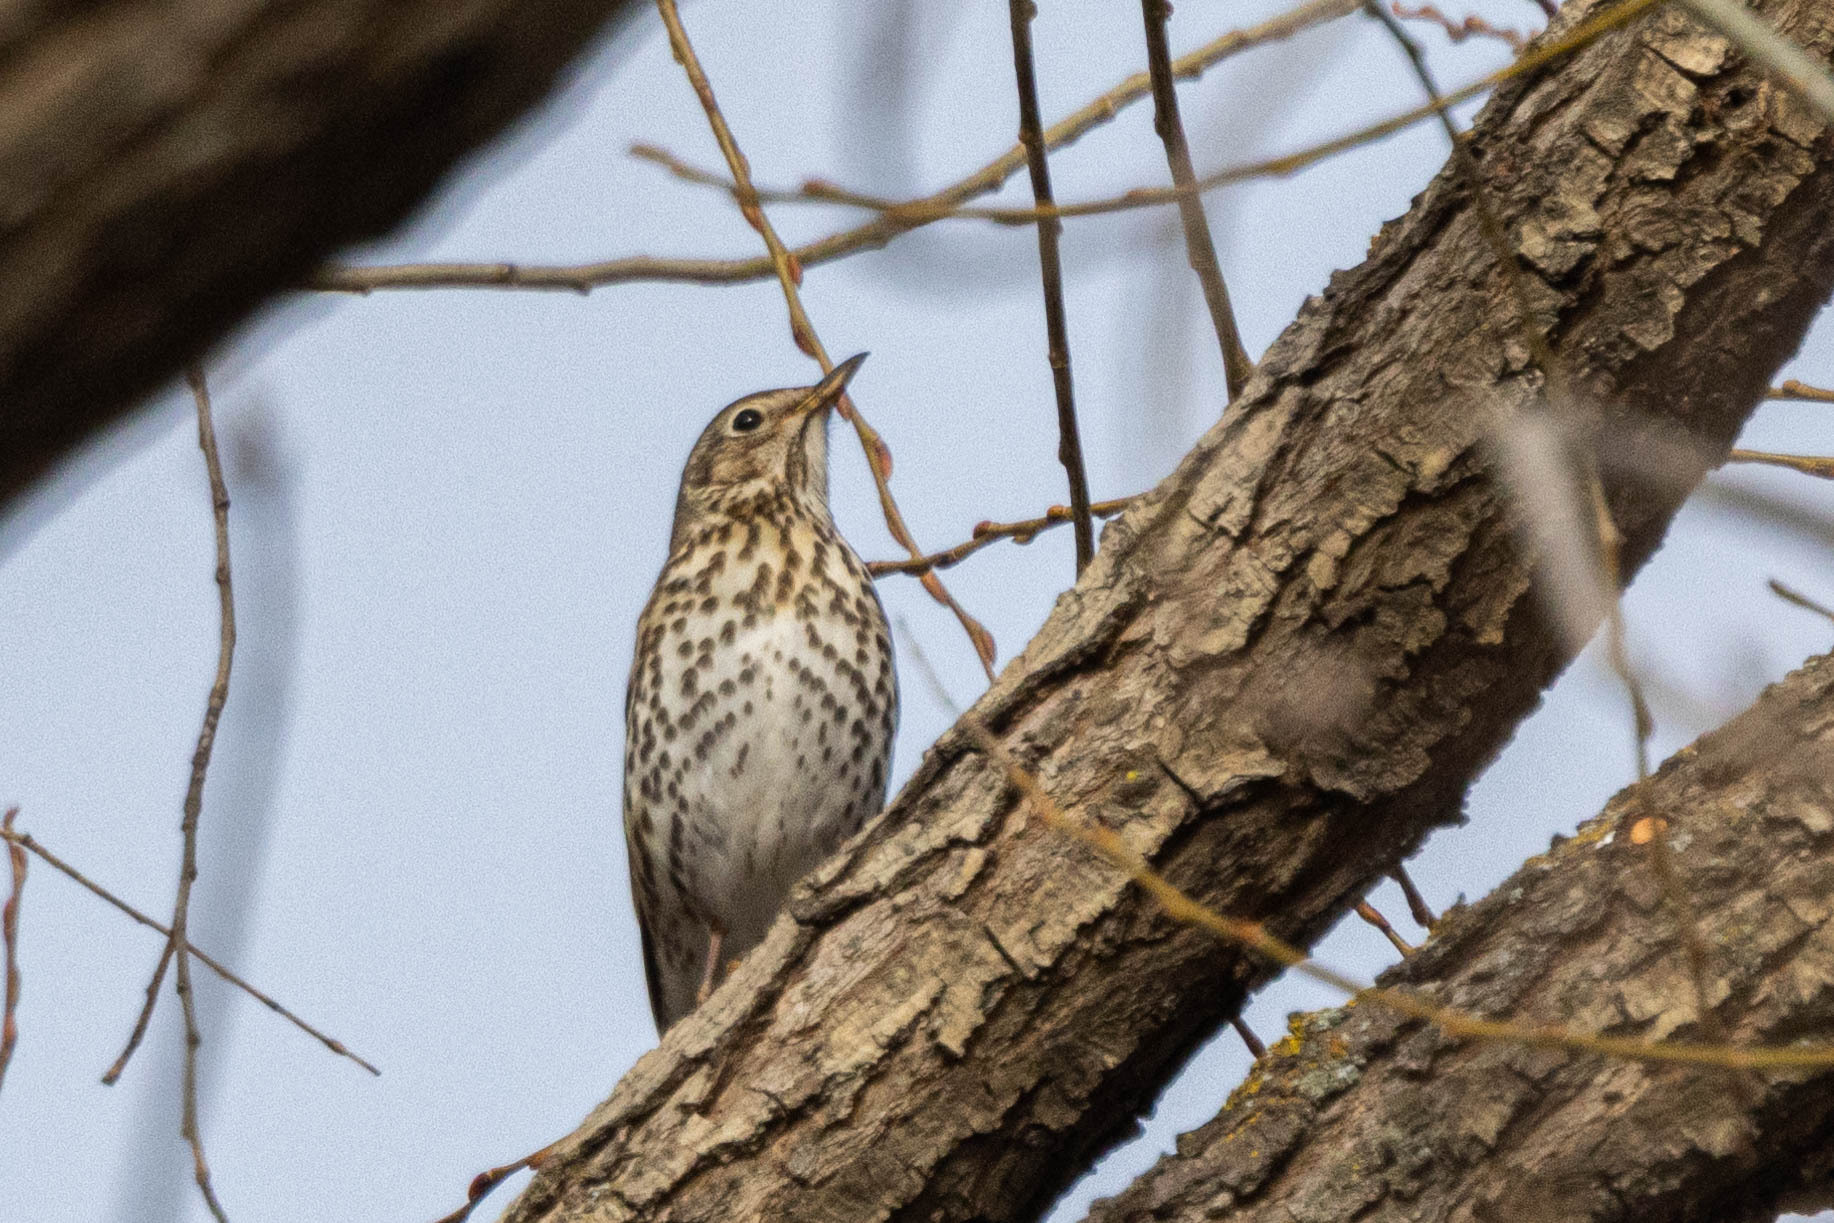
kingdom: Animalia
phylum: Chordata
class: Aves
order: Passeriformes
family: Turdidae
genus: Turdus
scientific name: Turdus philomelos
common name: Song thrush
